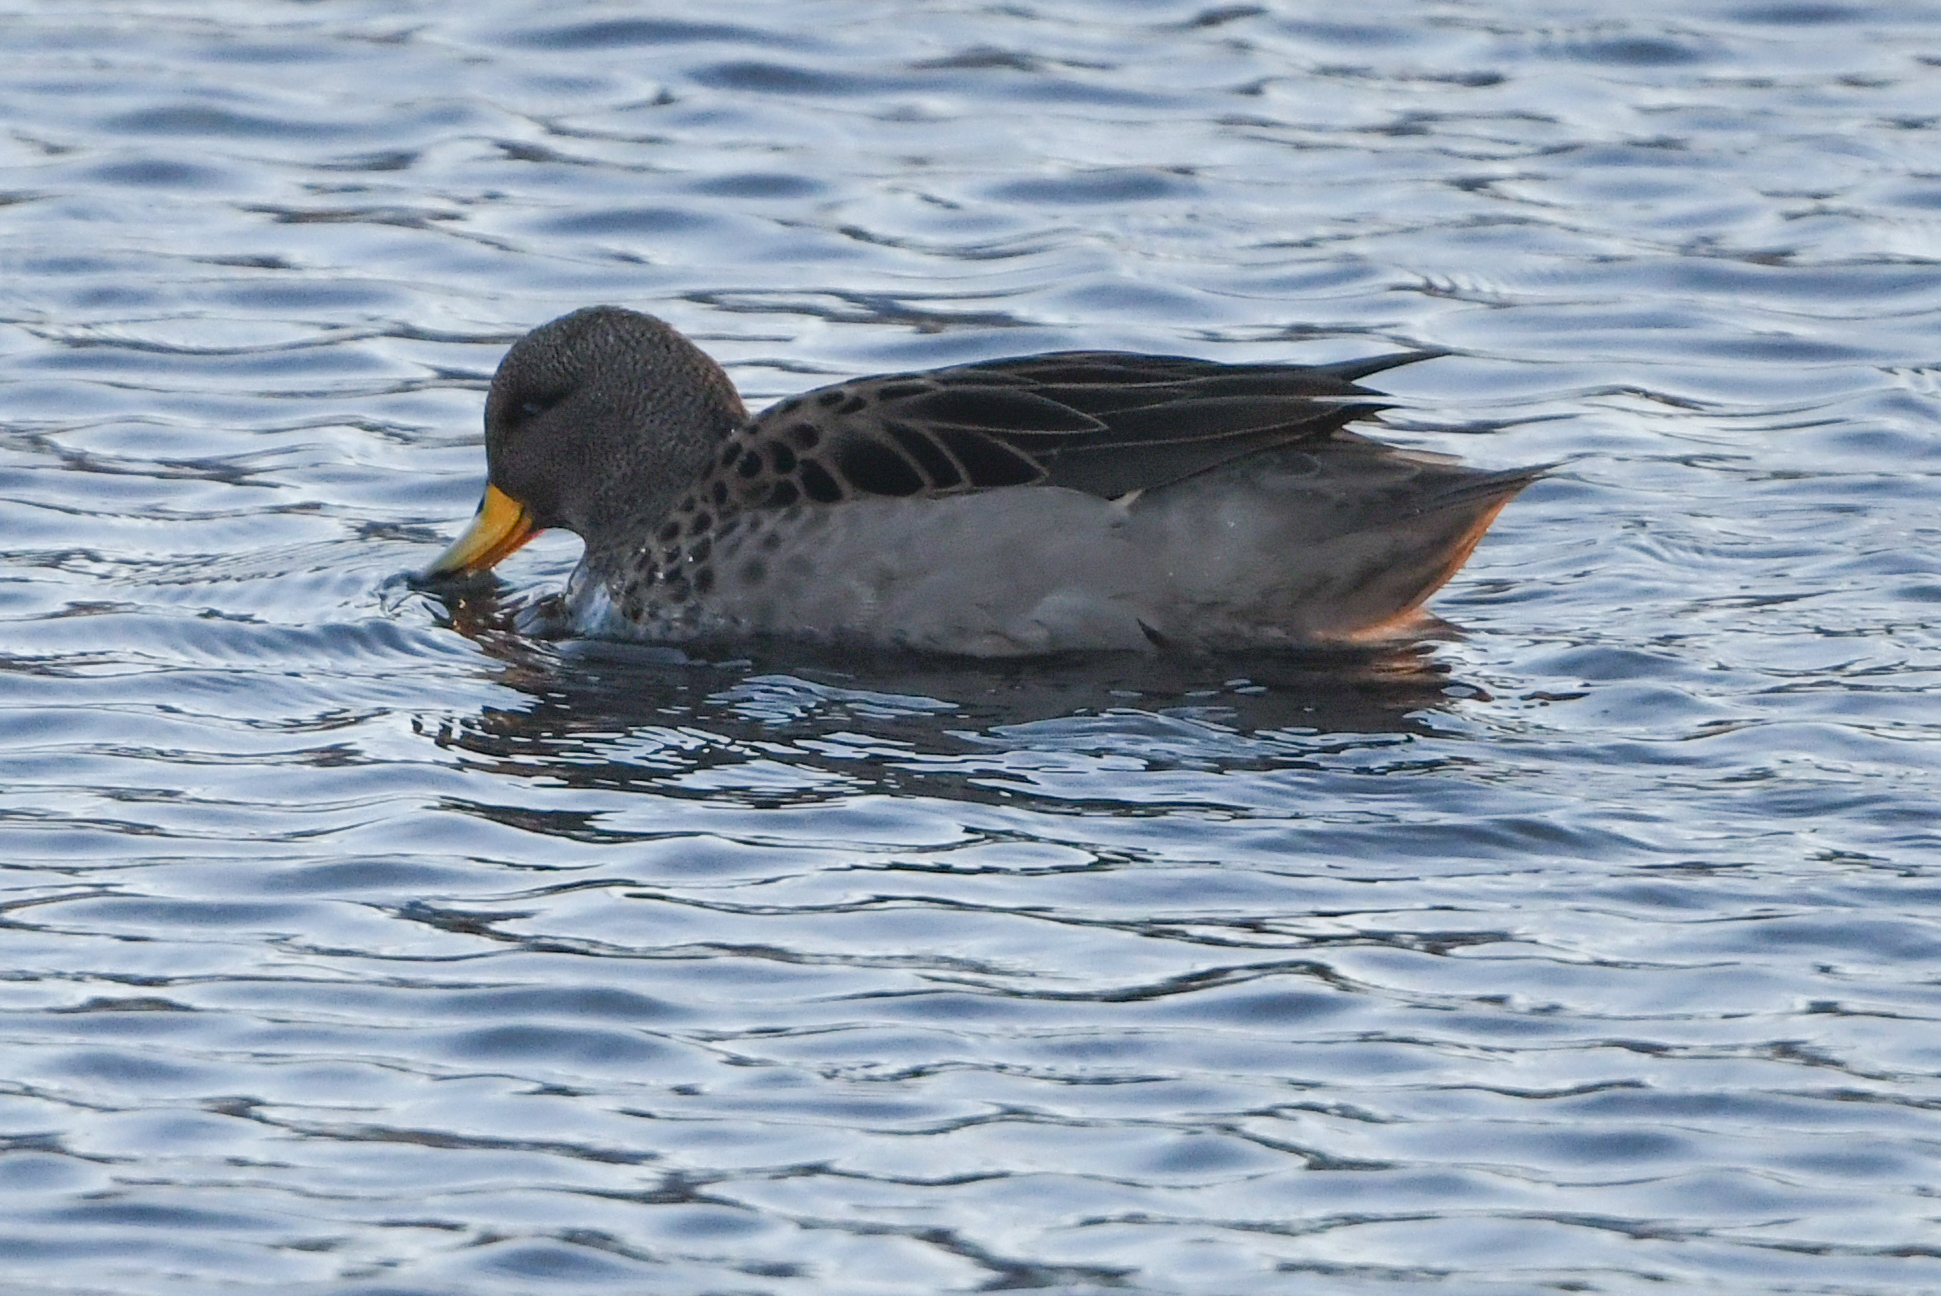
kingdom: Animalia
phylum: Chordata
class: Aves
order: Anseriformes
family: Anatidae
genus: Anas
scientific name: Anas flavirostris
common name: Yellow-billed teal
